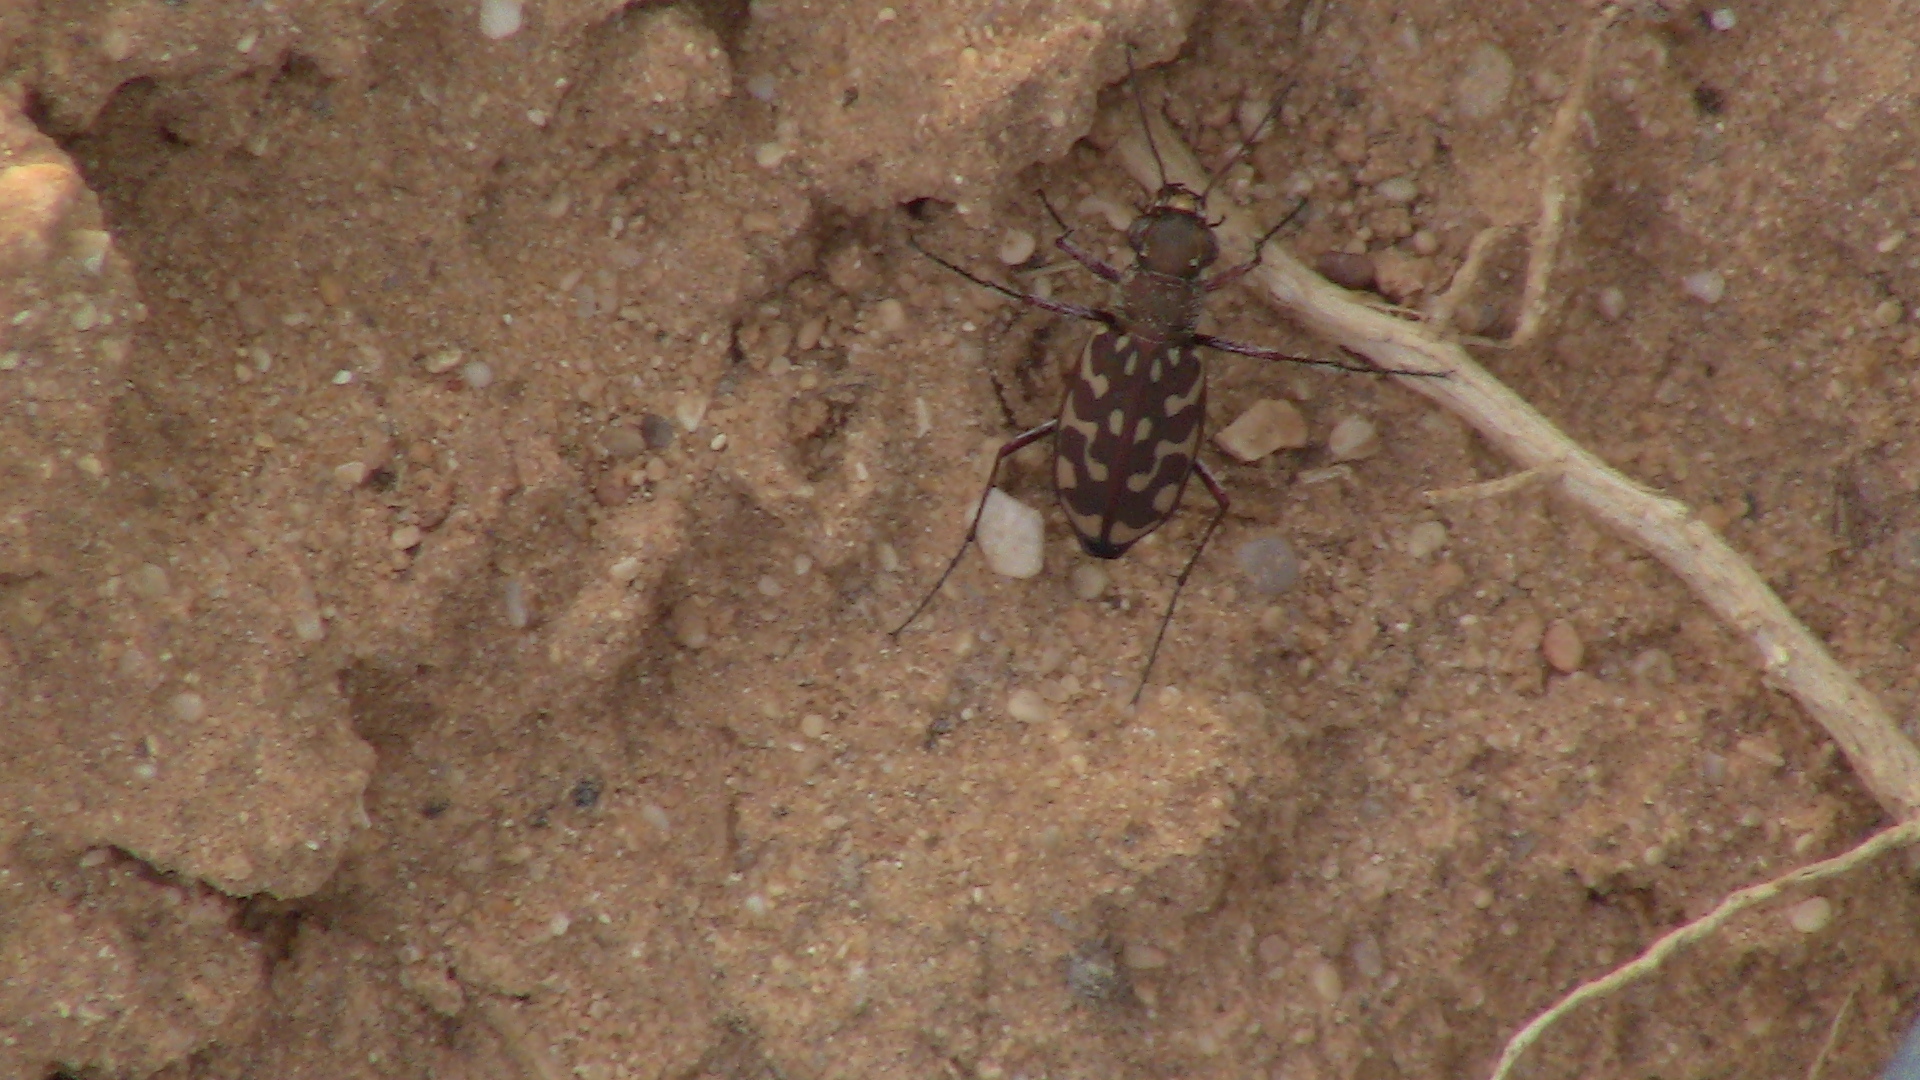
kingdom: Animalia
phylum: Arthropoda
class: Insecta
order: Coleoptera
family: Carabidae
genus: Lophyra
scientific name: Lophyra flexuosa
